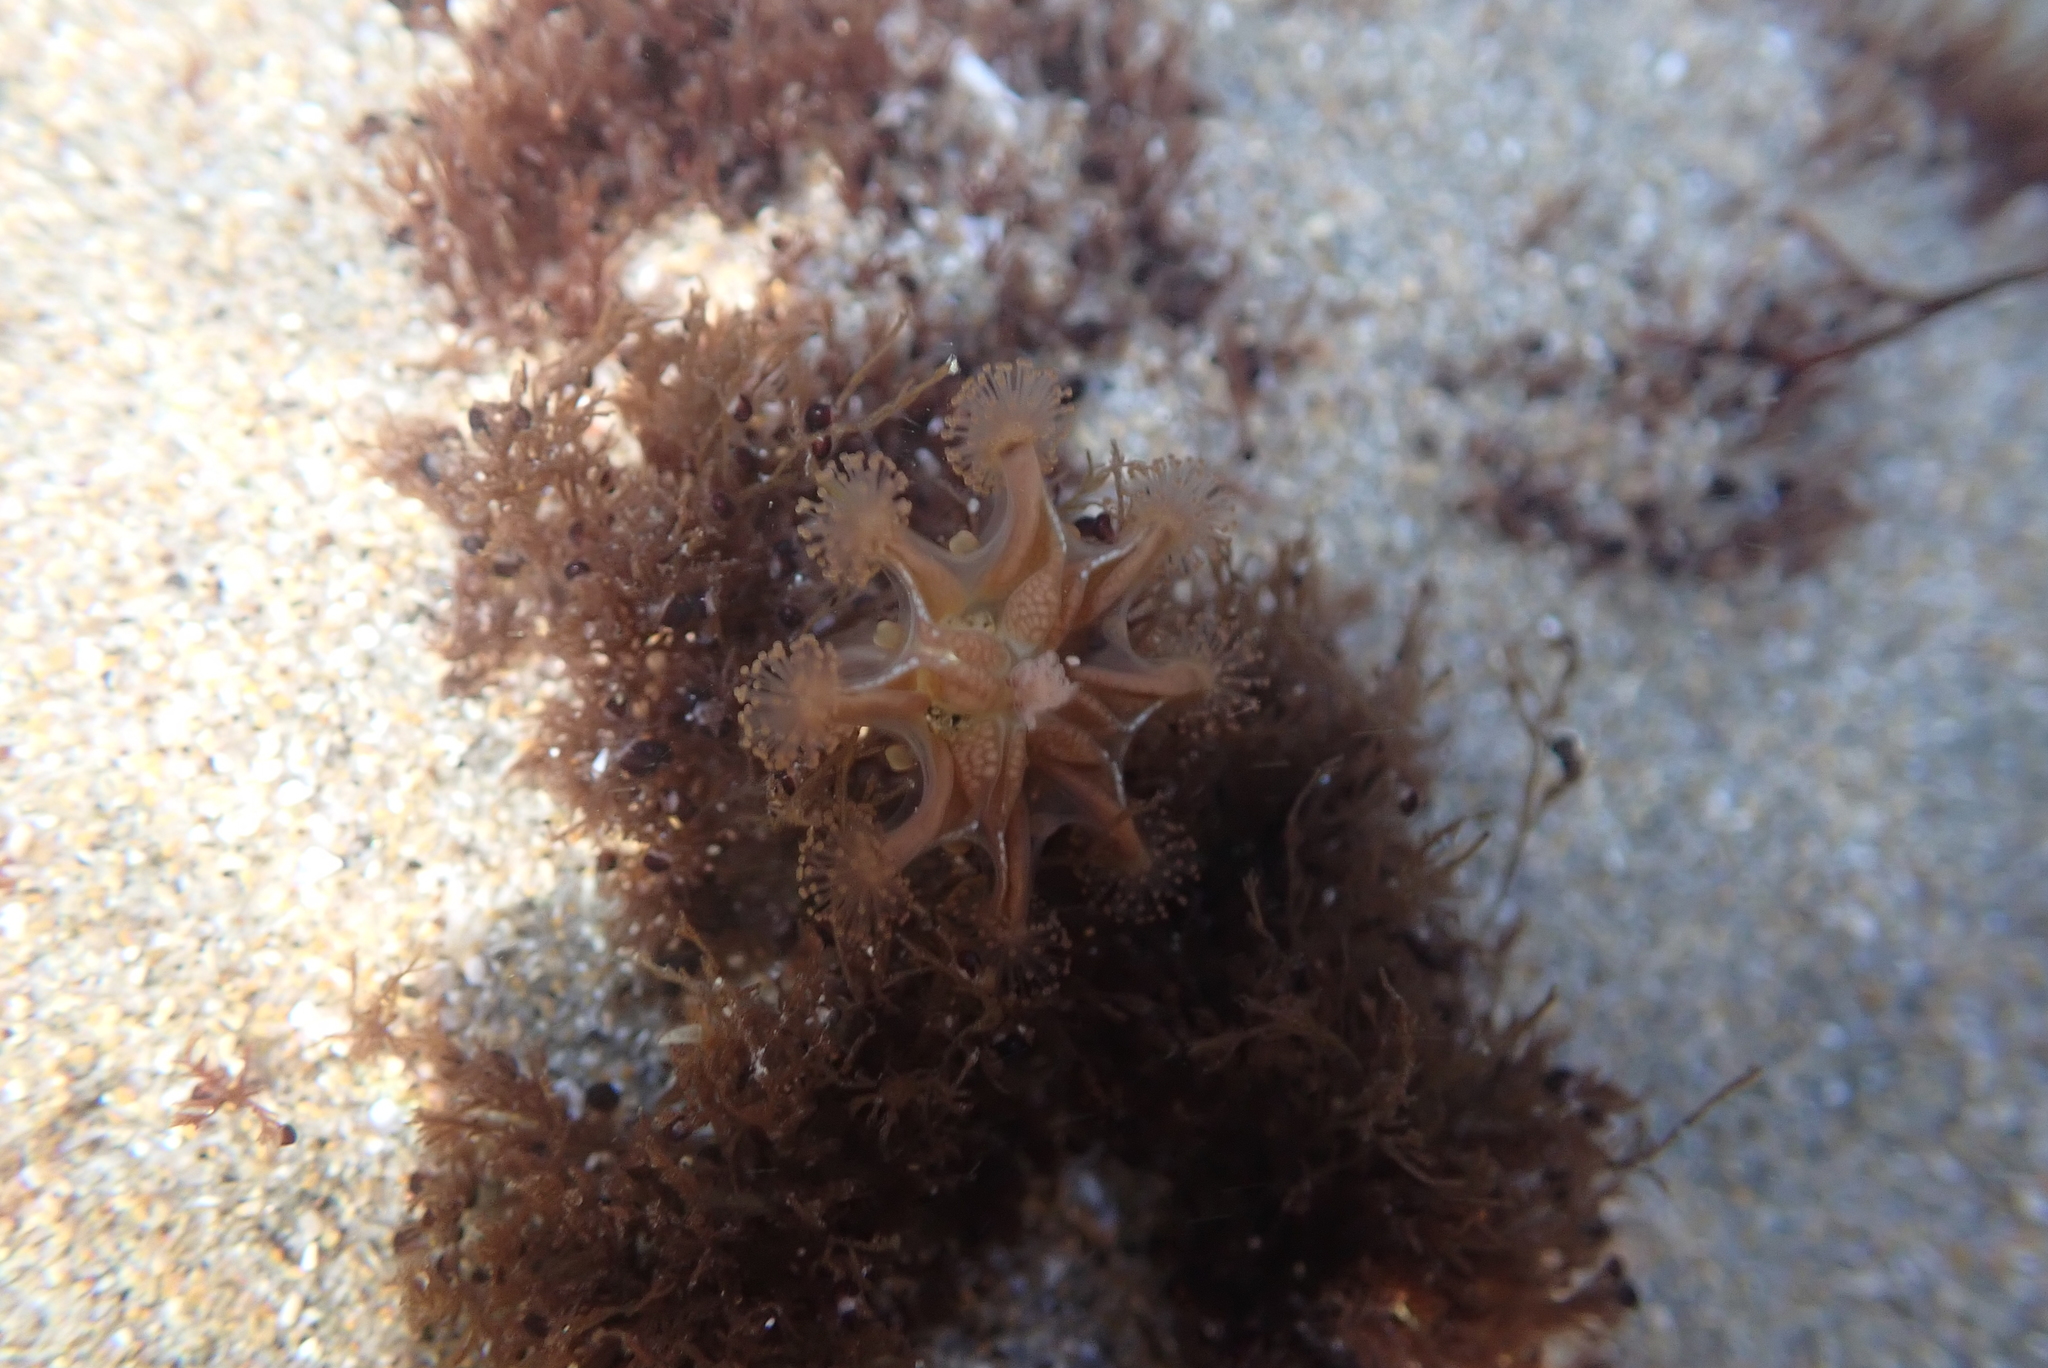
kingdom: Animalia
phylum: Cnidaria
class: Staurozoa
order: Stauromedusae
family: Haliclystidae
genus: Haliclystus
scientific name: Haliclystus sanjuanensis
